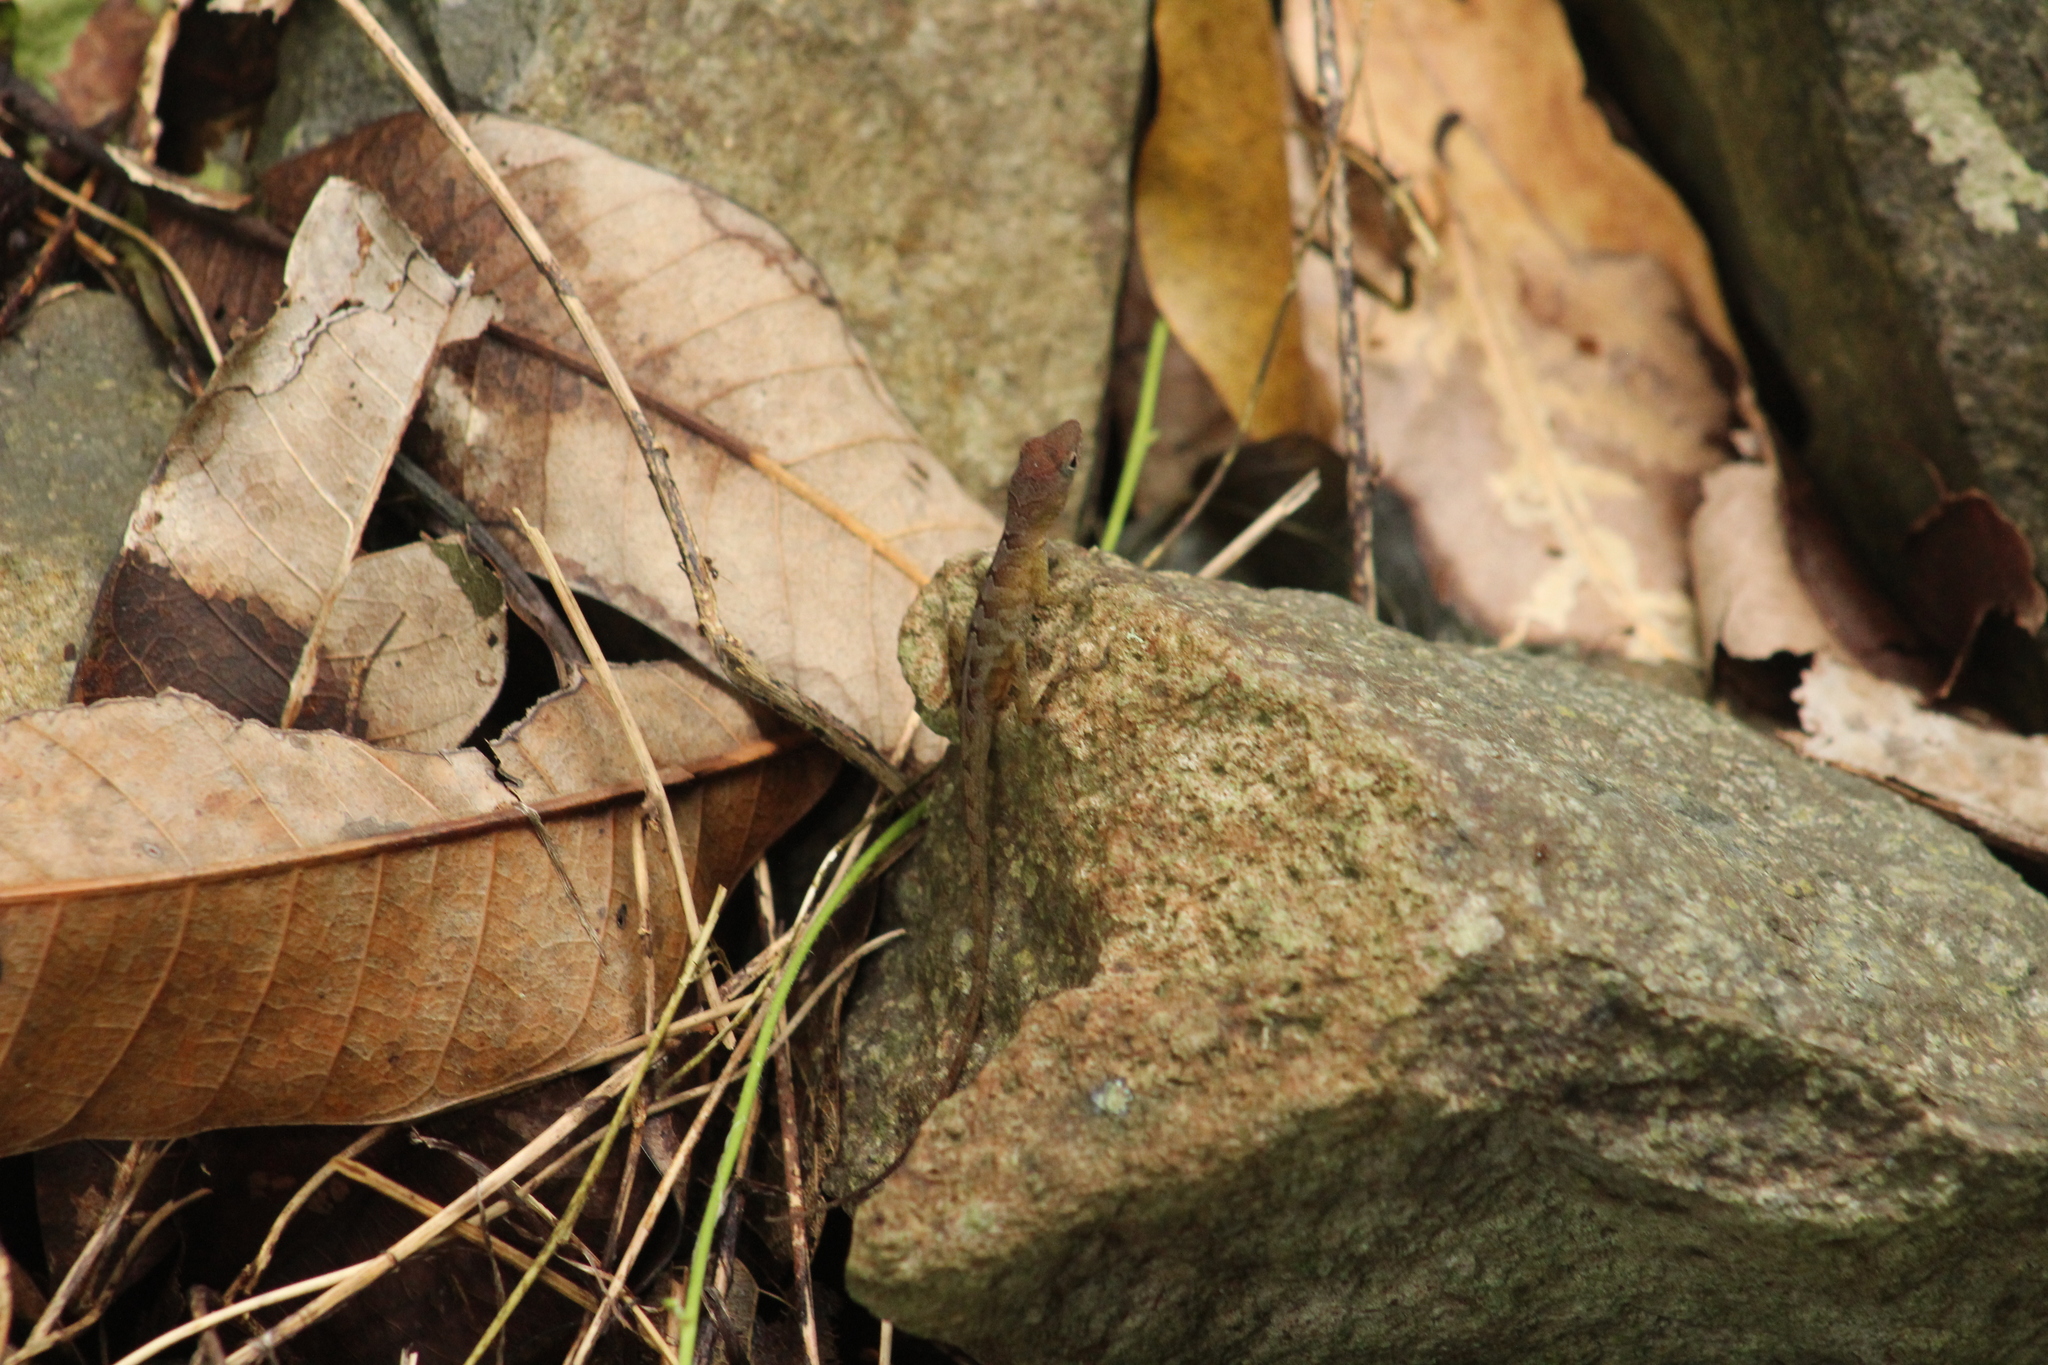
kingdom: Animalia
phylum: Chordata
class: Squamata
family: Dactyloidae
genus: Anolis
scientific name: Anolis pogus
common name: Anguilla bank bush anole
